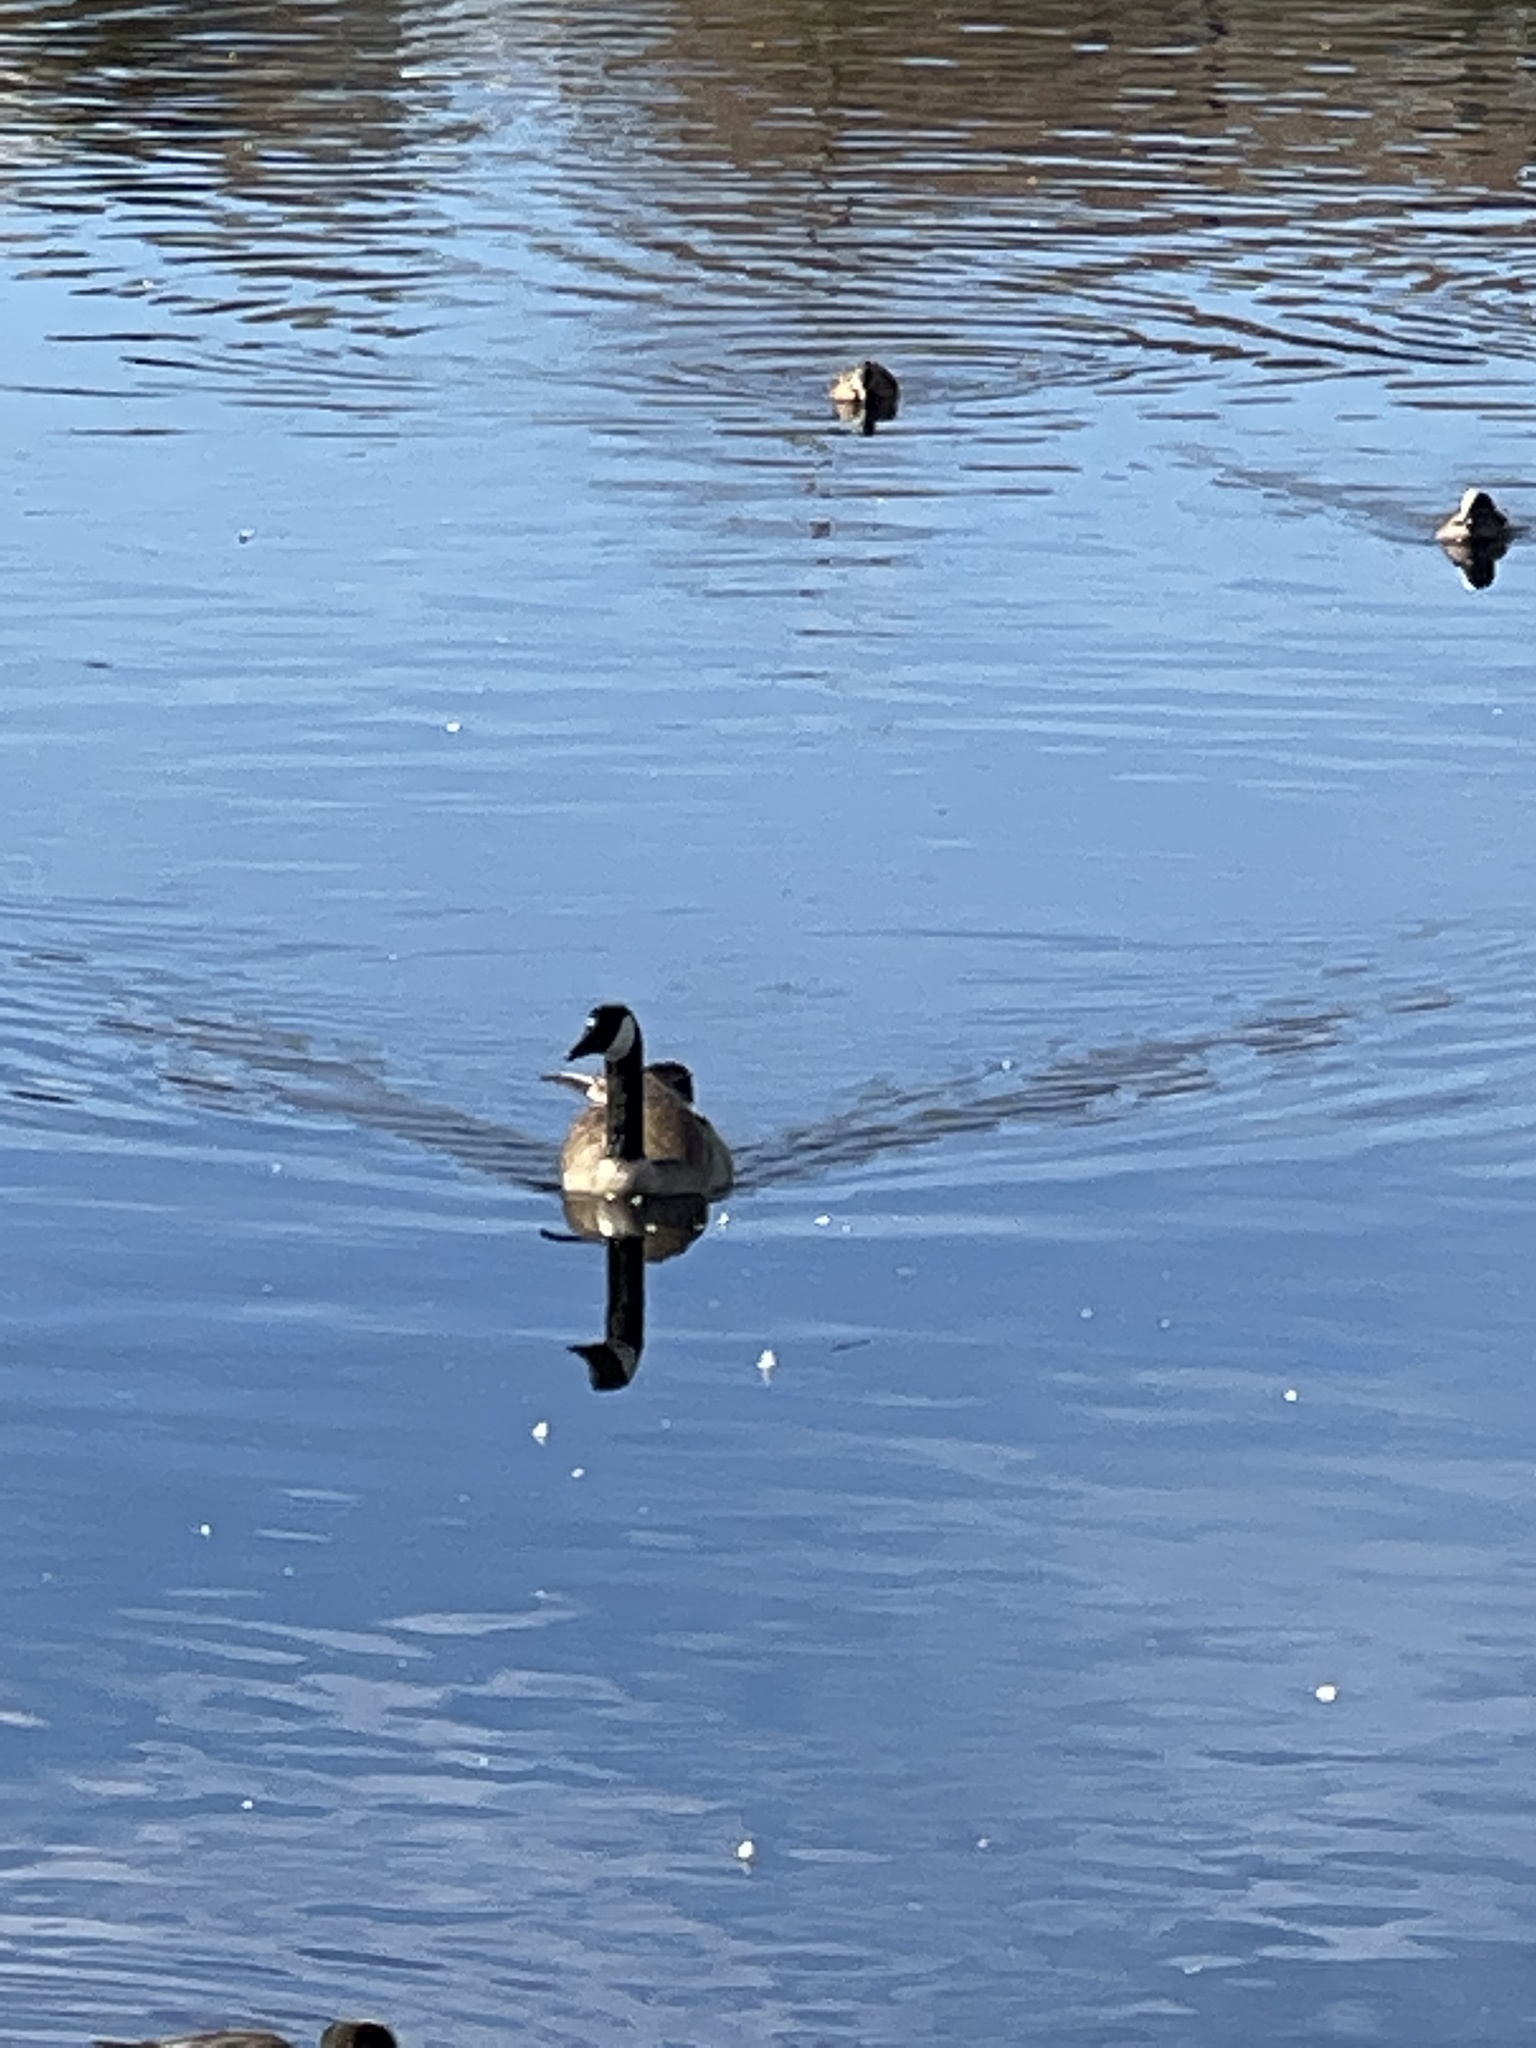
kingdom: Animalia
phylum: Chordata
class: Aves
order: Anseriformes
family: Anatidae
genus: Branta
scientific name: Branta canadensis
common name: Canada goose
